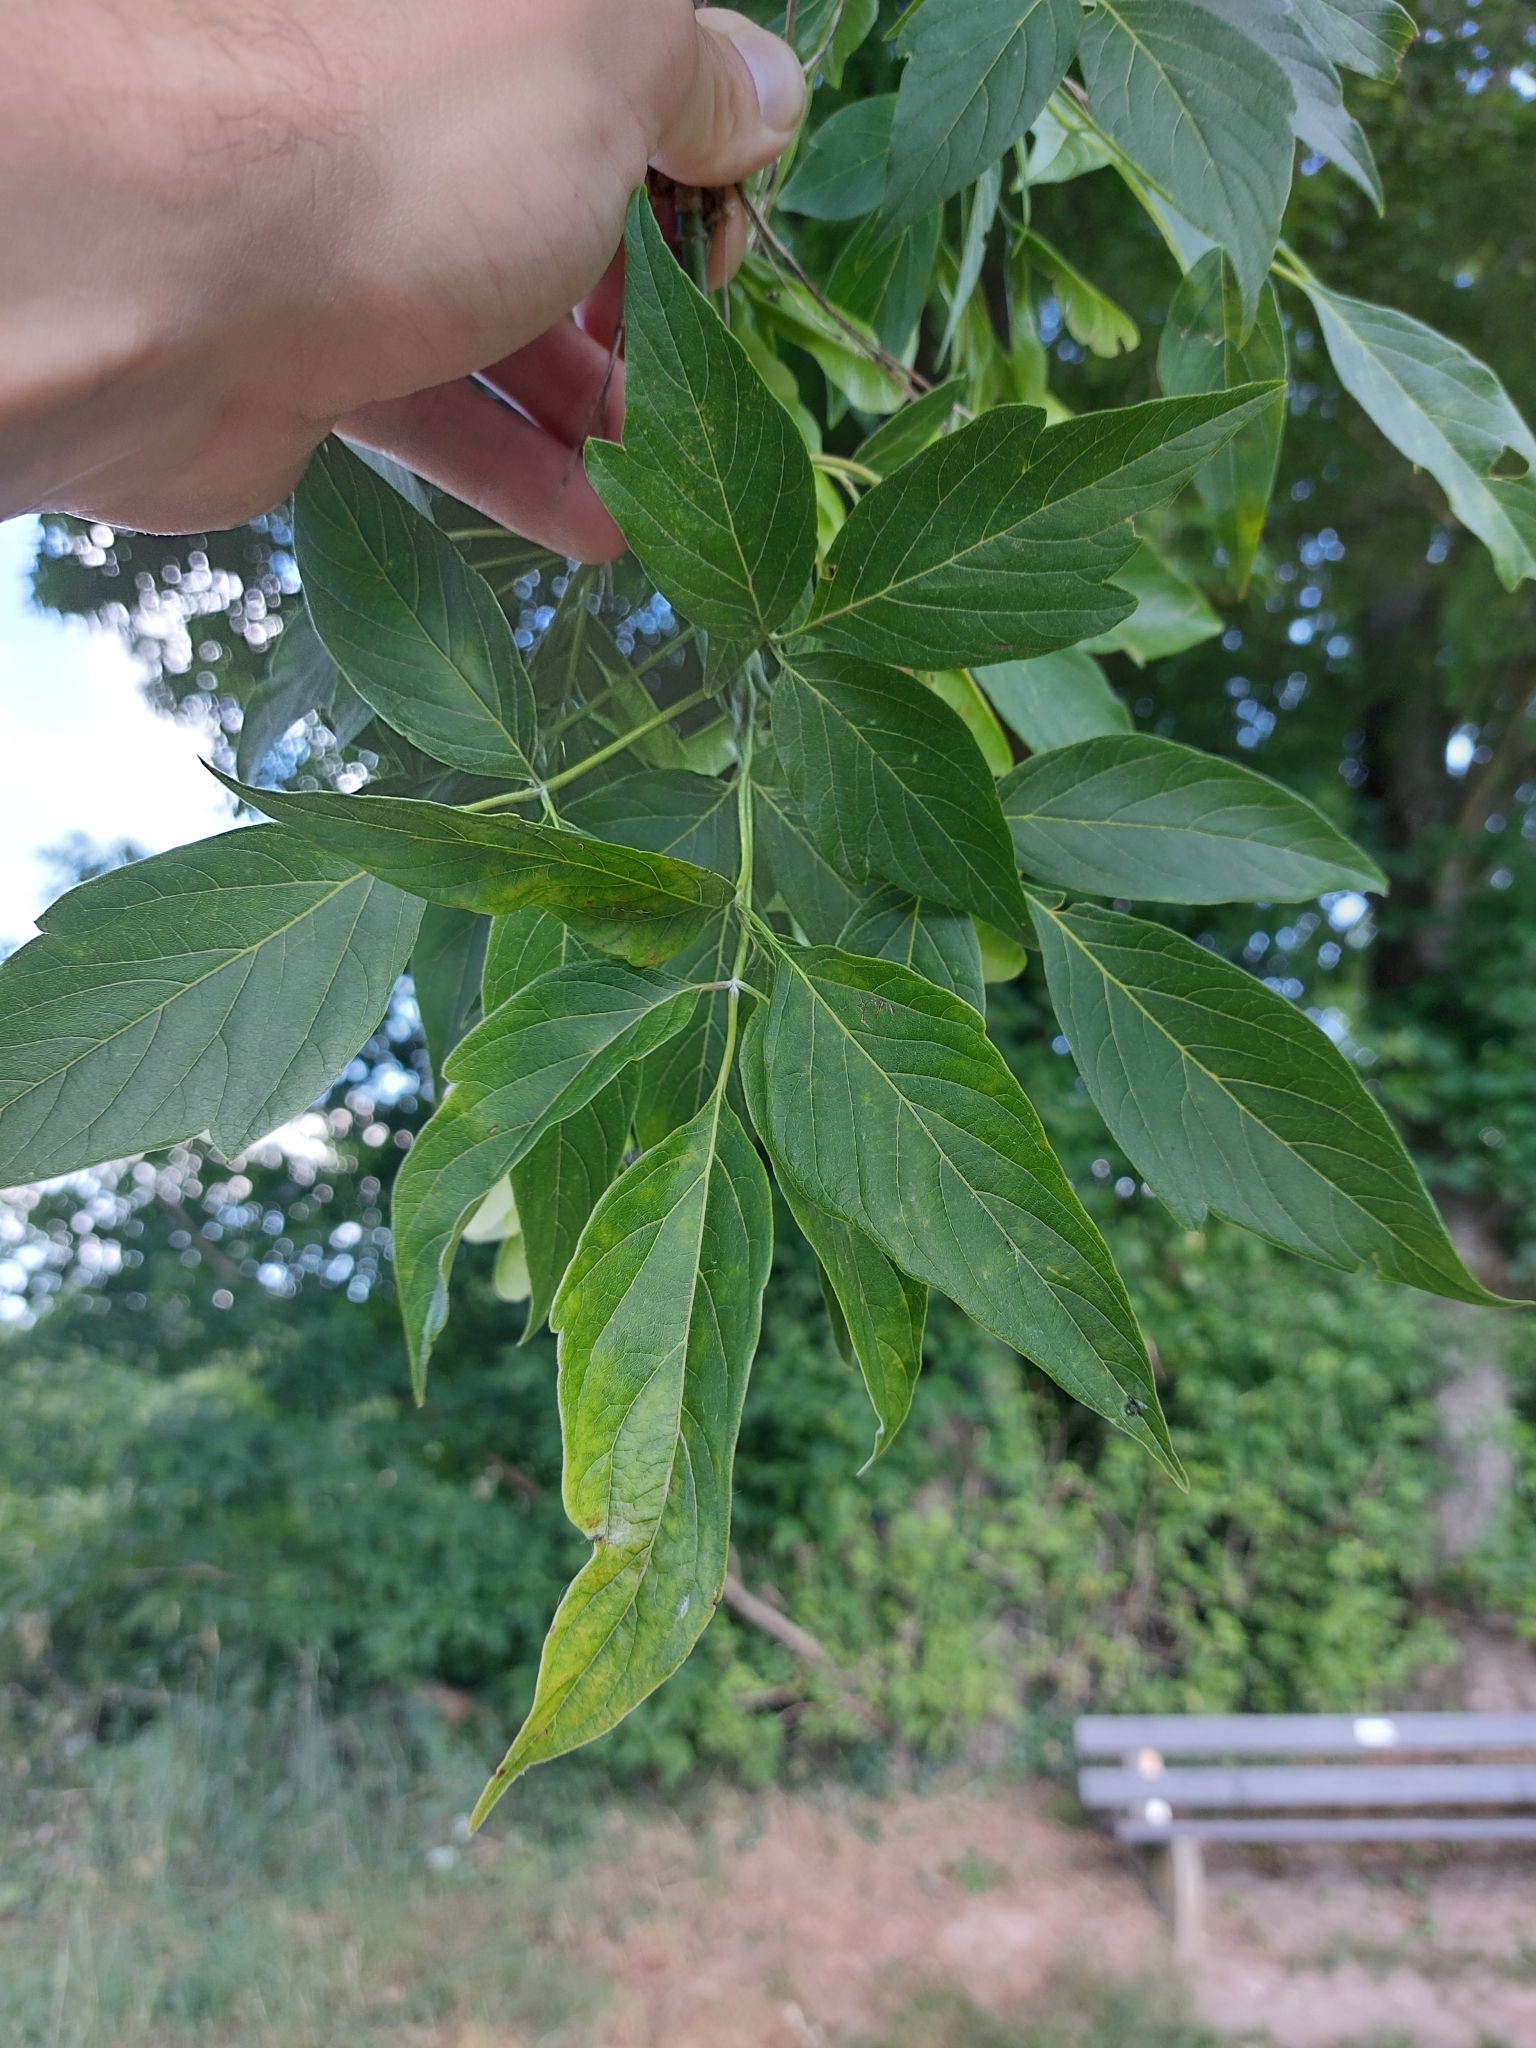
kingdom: Plantae
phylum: Tracheophyta
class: Magnoliopsida
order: Sapindales
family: Sapindaceae
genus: Acer
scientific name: Acer negundo
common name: Ashleaf maple
